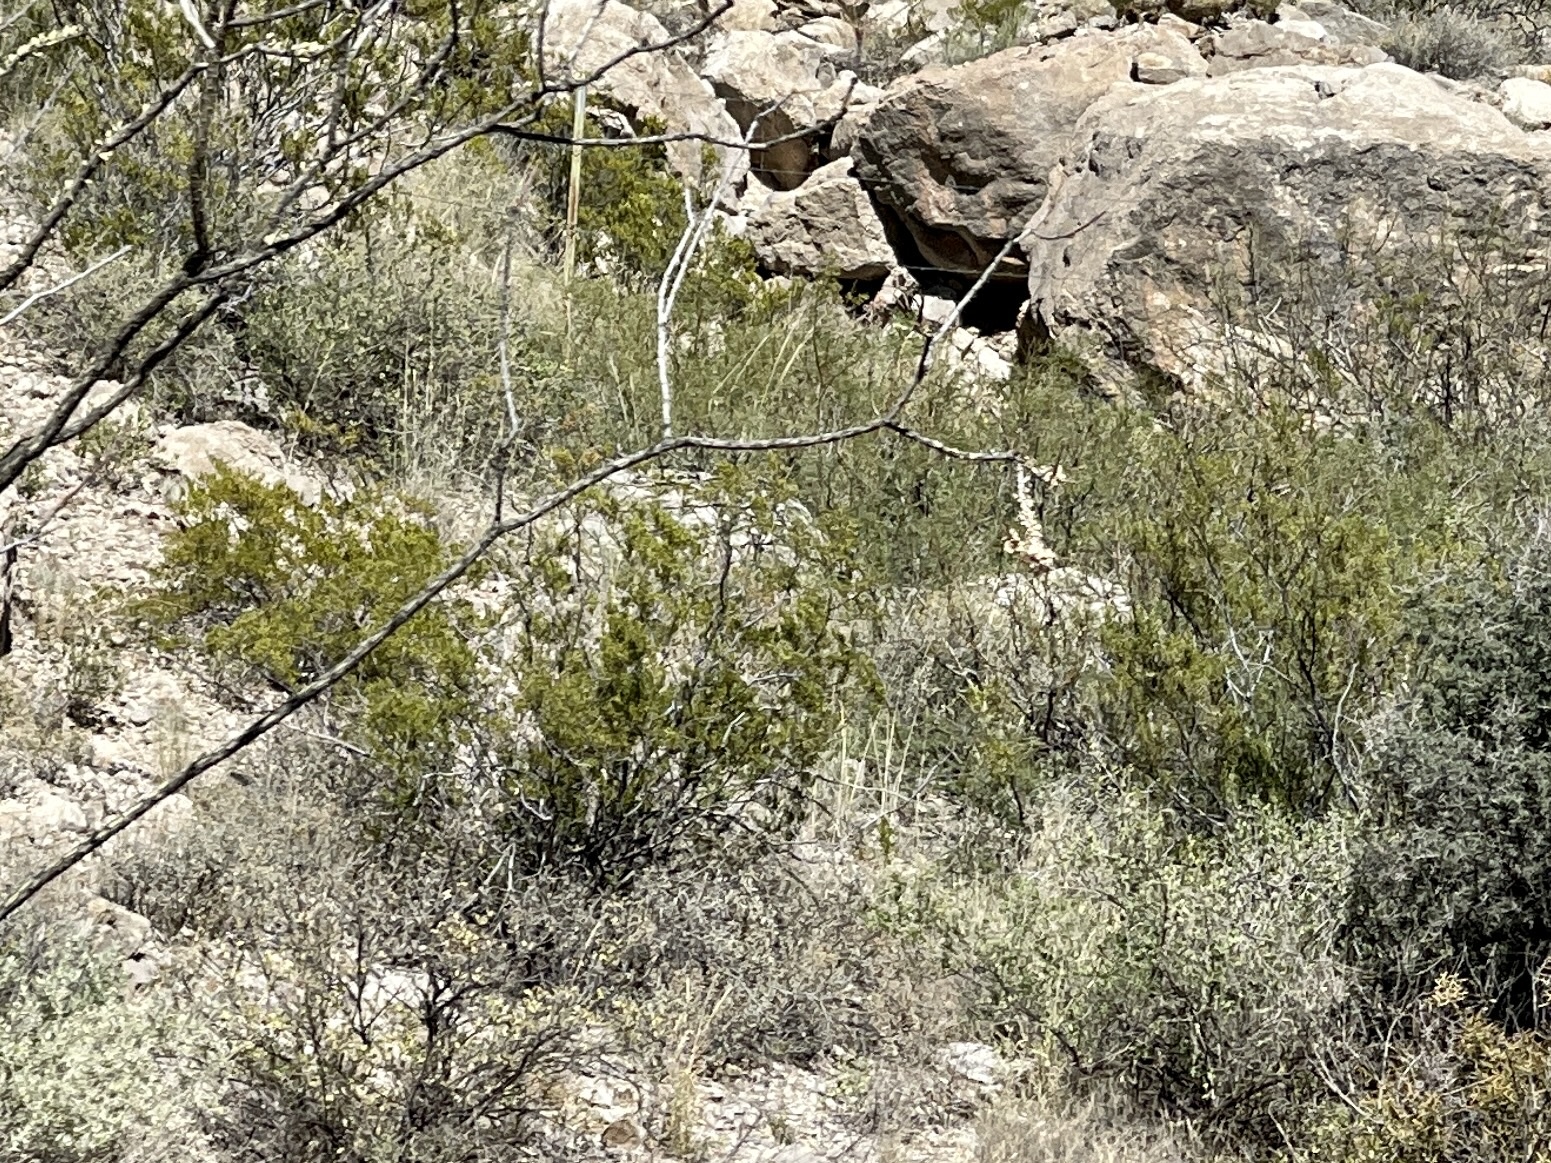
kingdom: Plantae
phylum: Tracheophyta
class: Magnoliopsida
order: Zygophyllales
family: Zygophyllaceae
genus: Larrea
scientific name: Larrea tridentata
